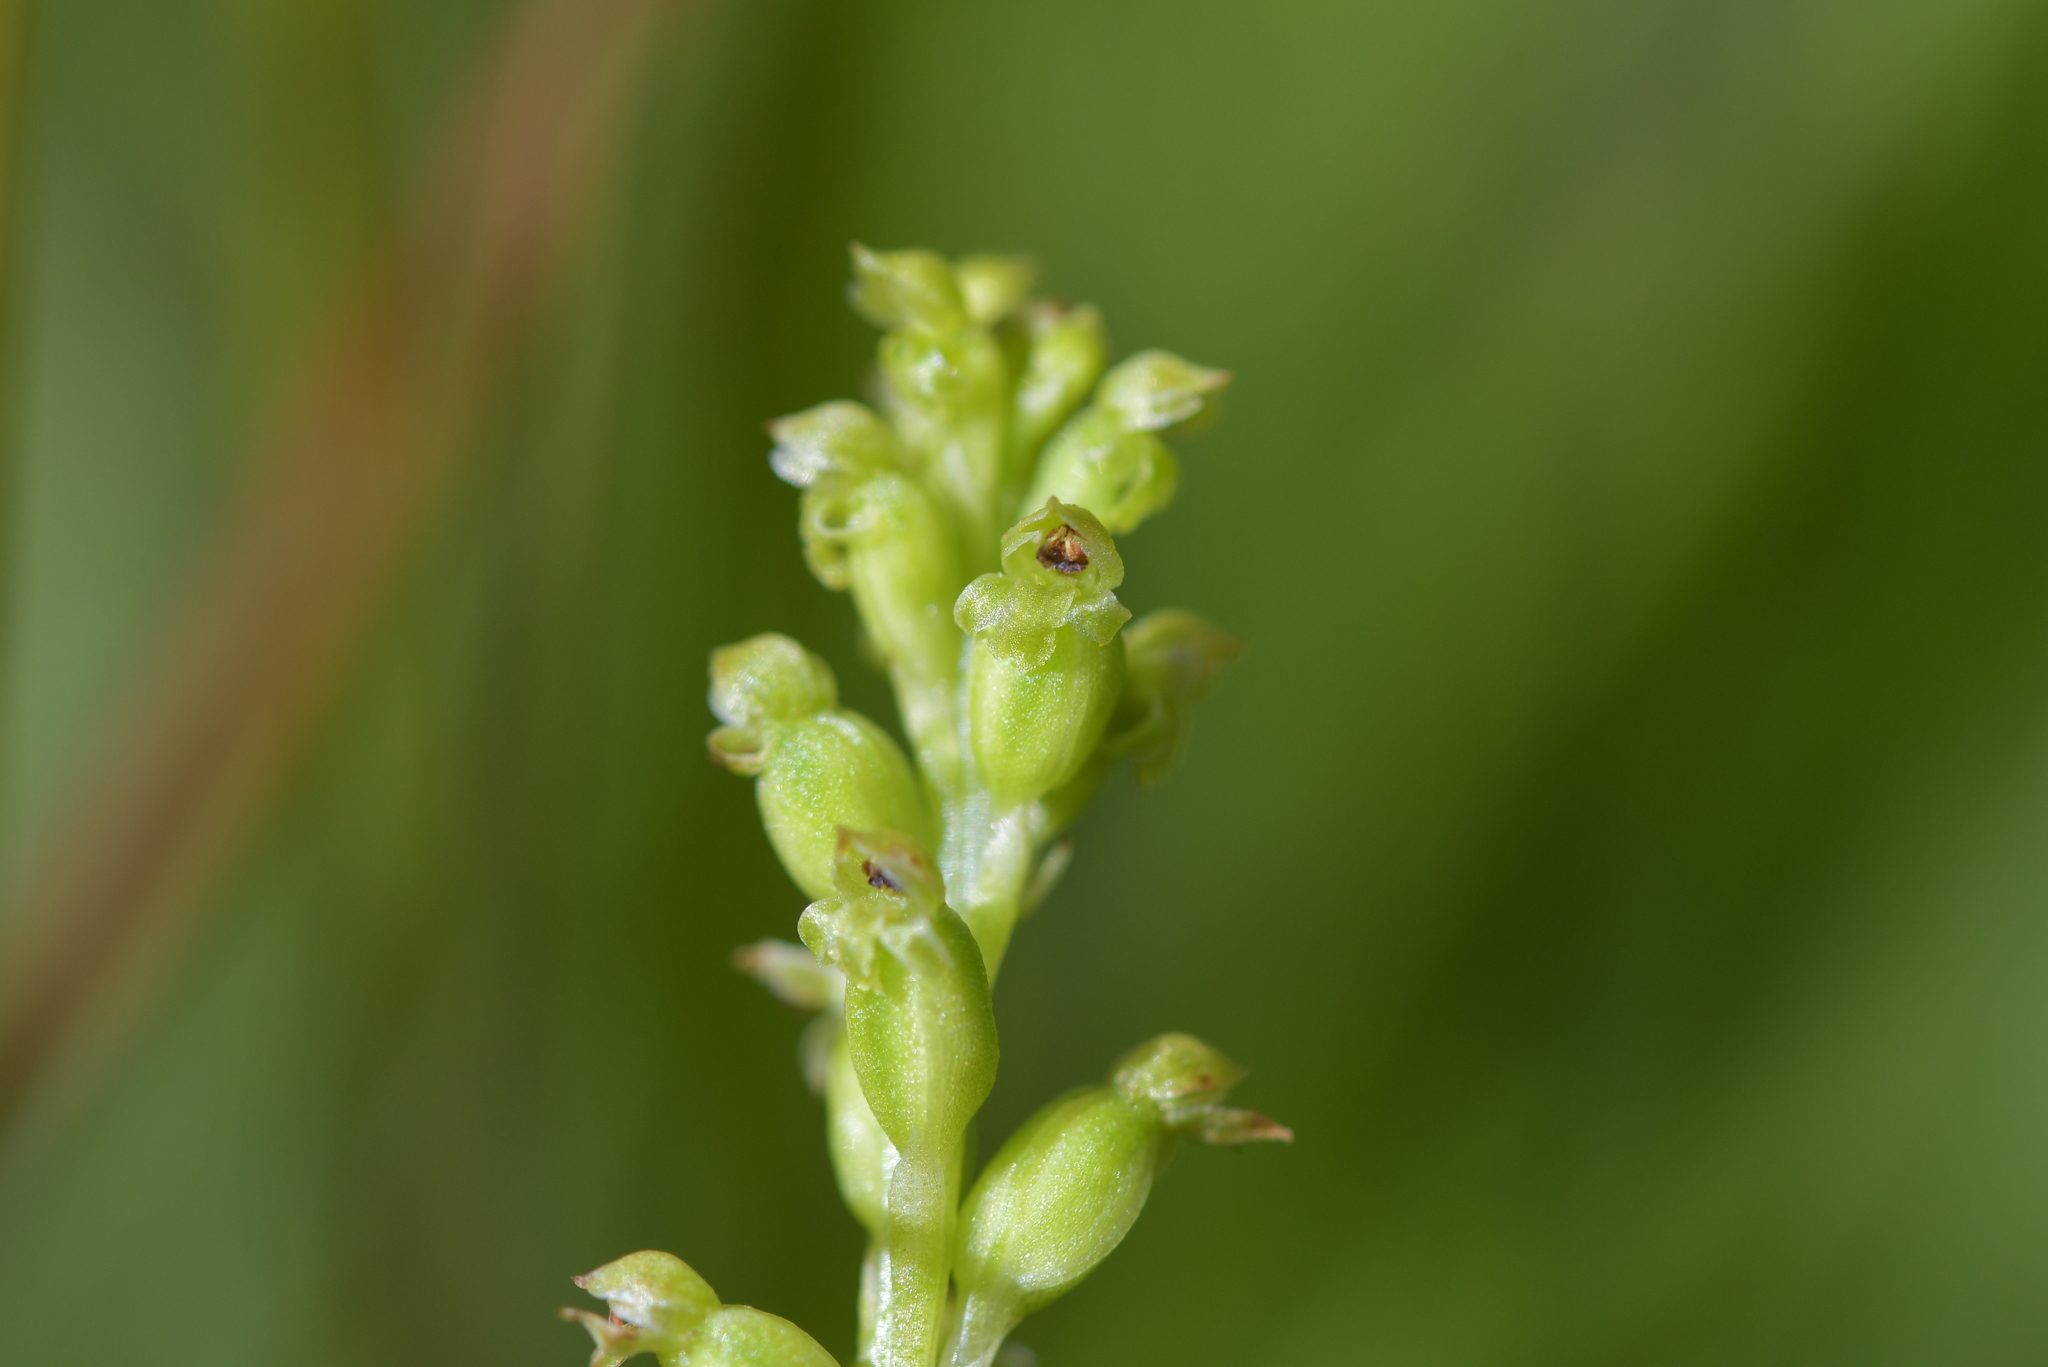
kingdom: Plantae
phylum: Tracheophyta
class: Liliopsida
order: Asparagales
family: Orchidaceae
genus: Microtis
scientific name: Microtis unifolia
